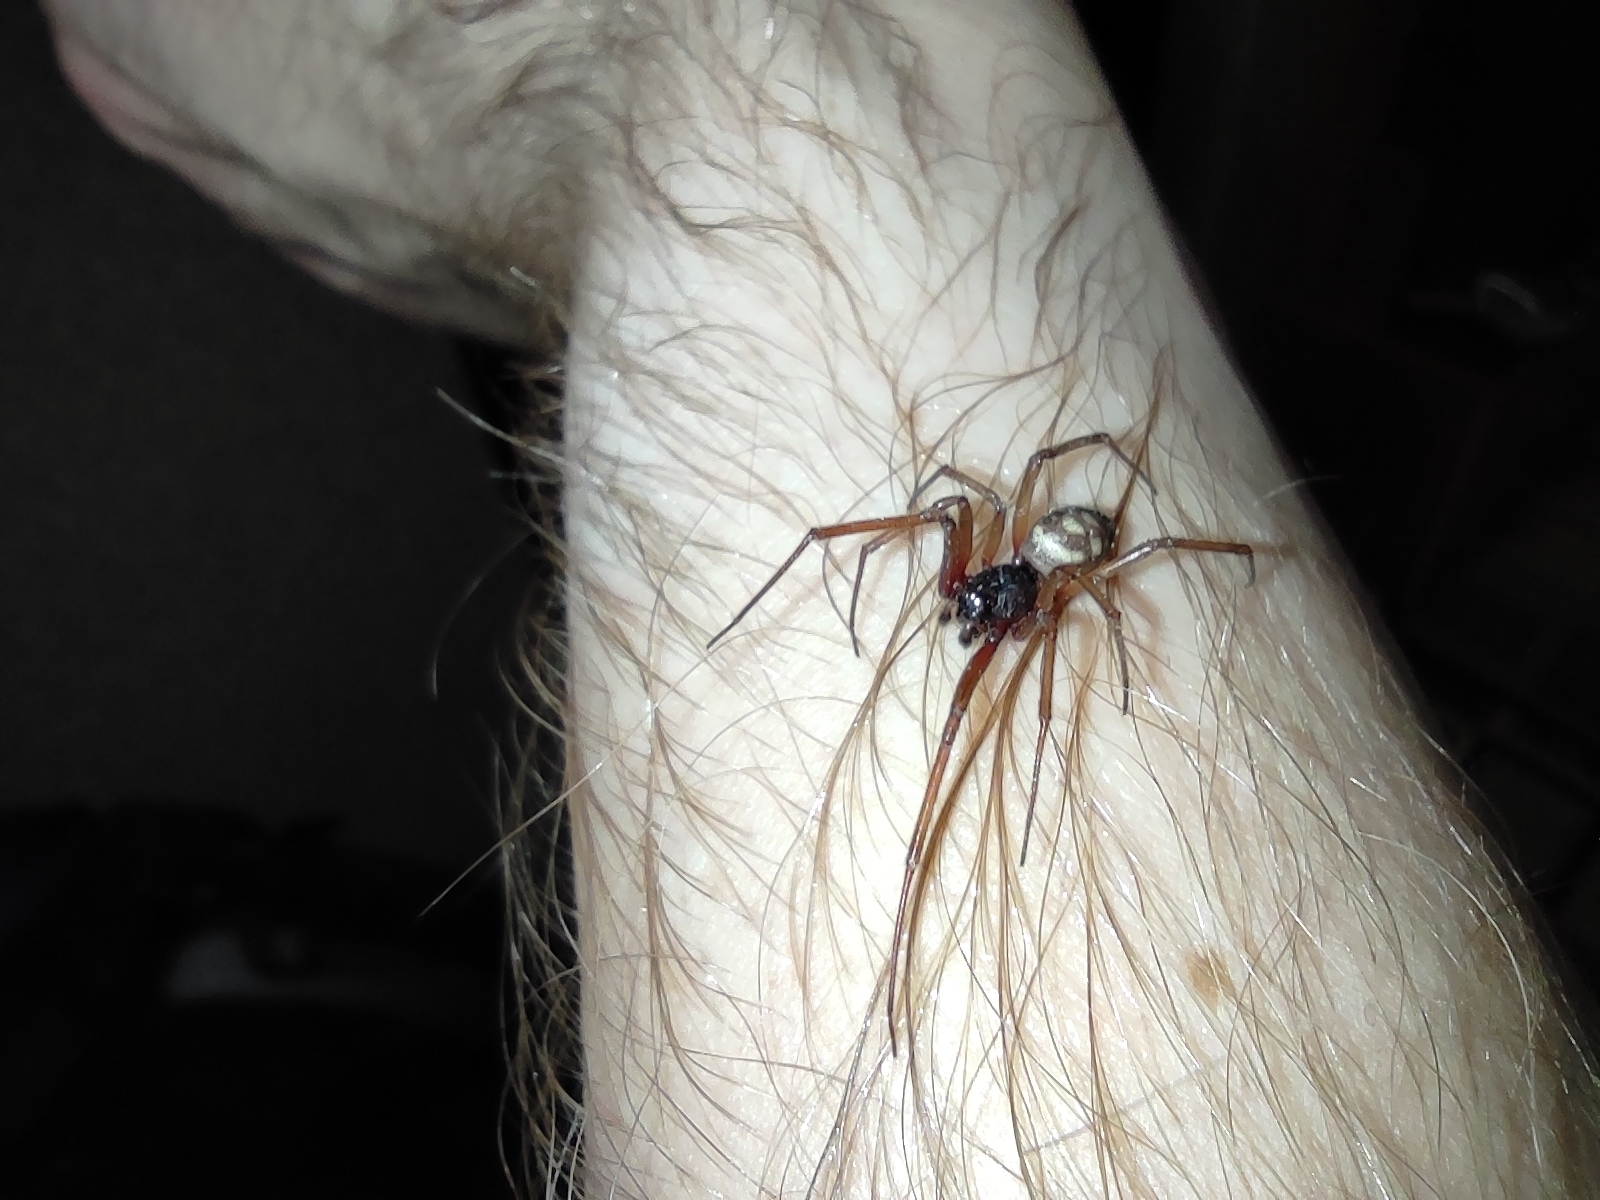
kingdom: Animalia
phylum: Arthropoda
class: Arachnida
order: Araneae
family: Theridiidae
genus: Steatoda
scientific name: Steatoda grossa
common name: False black widow
